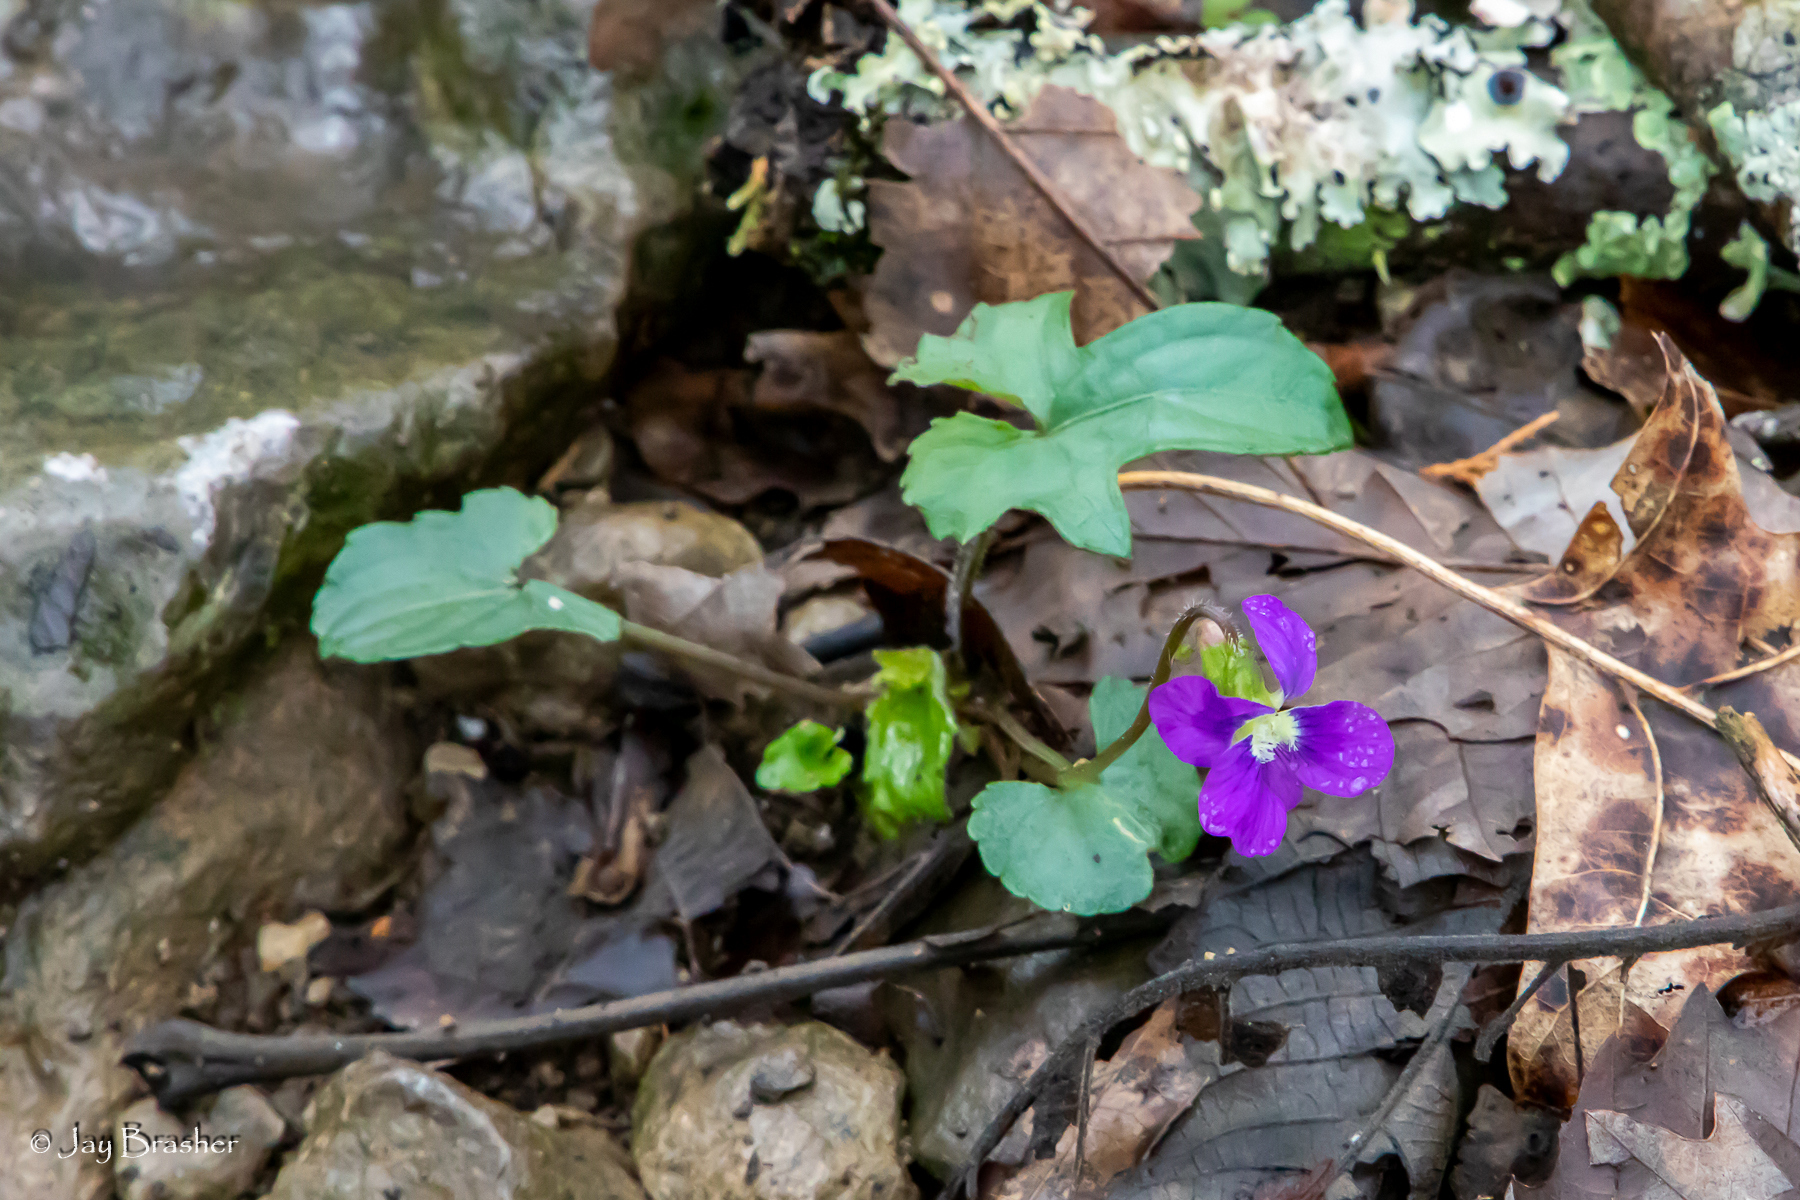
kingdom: Plantae
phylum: Tracheophyta
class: Magnoliopsida
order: Malpighiales
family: Violaceae
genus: Viola
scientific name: Viola palmata
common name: Early blue violet
